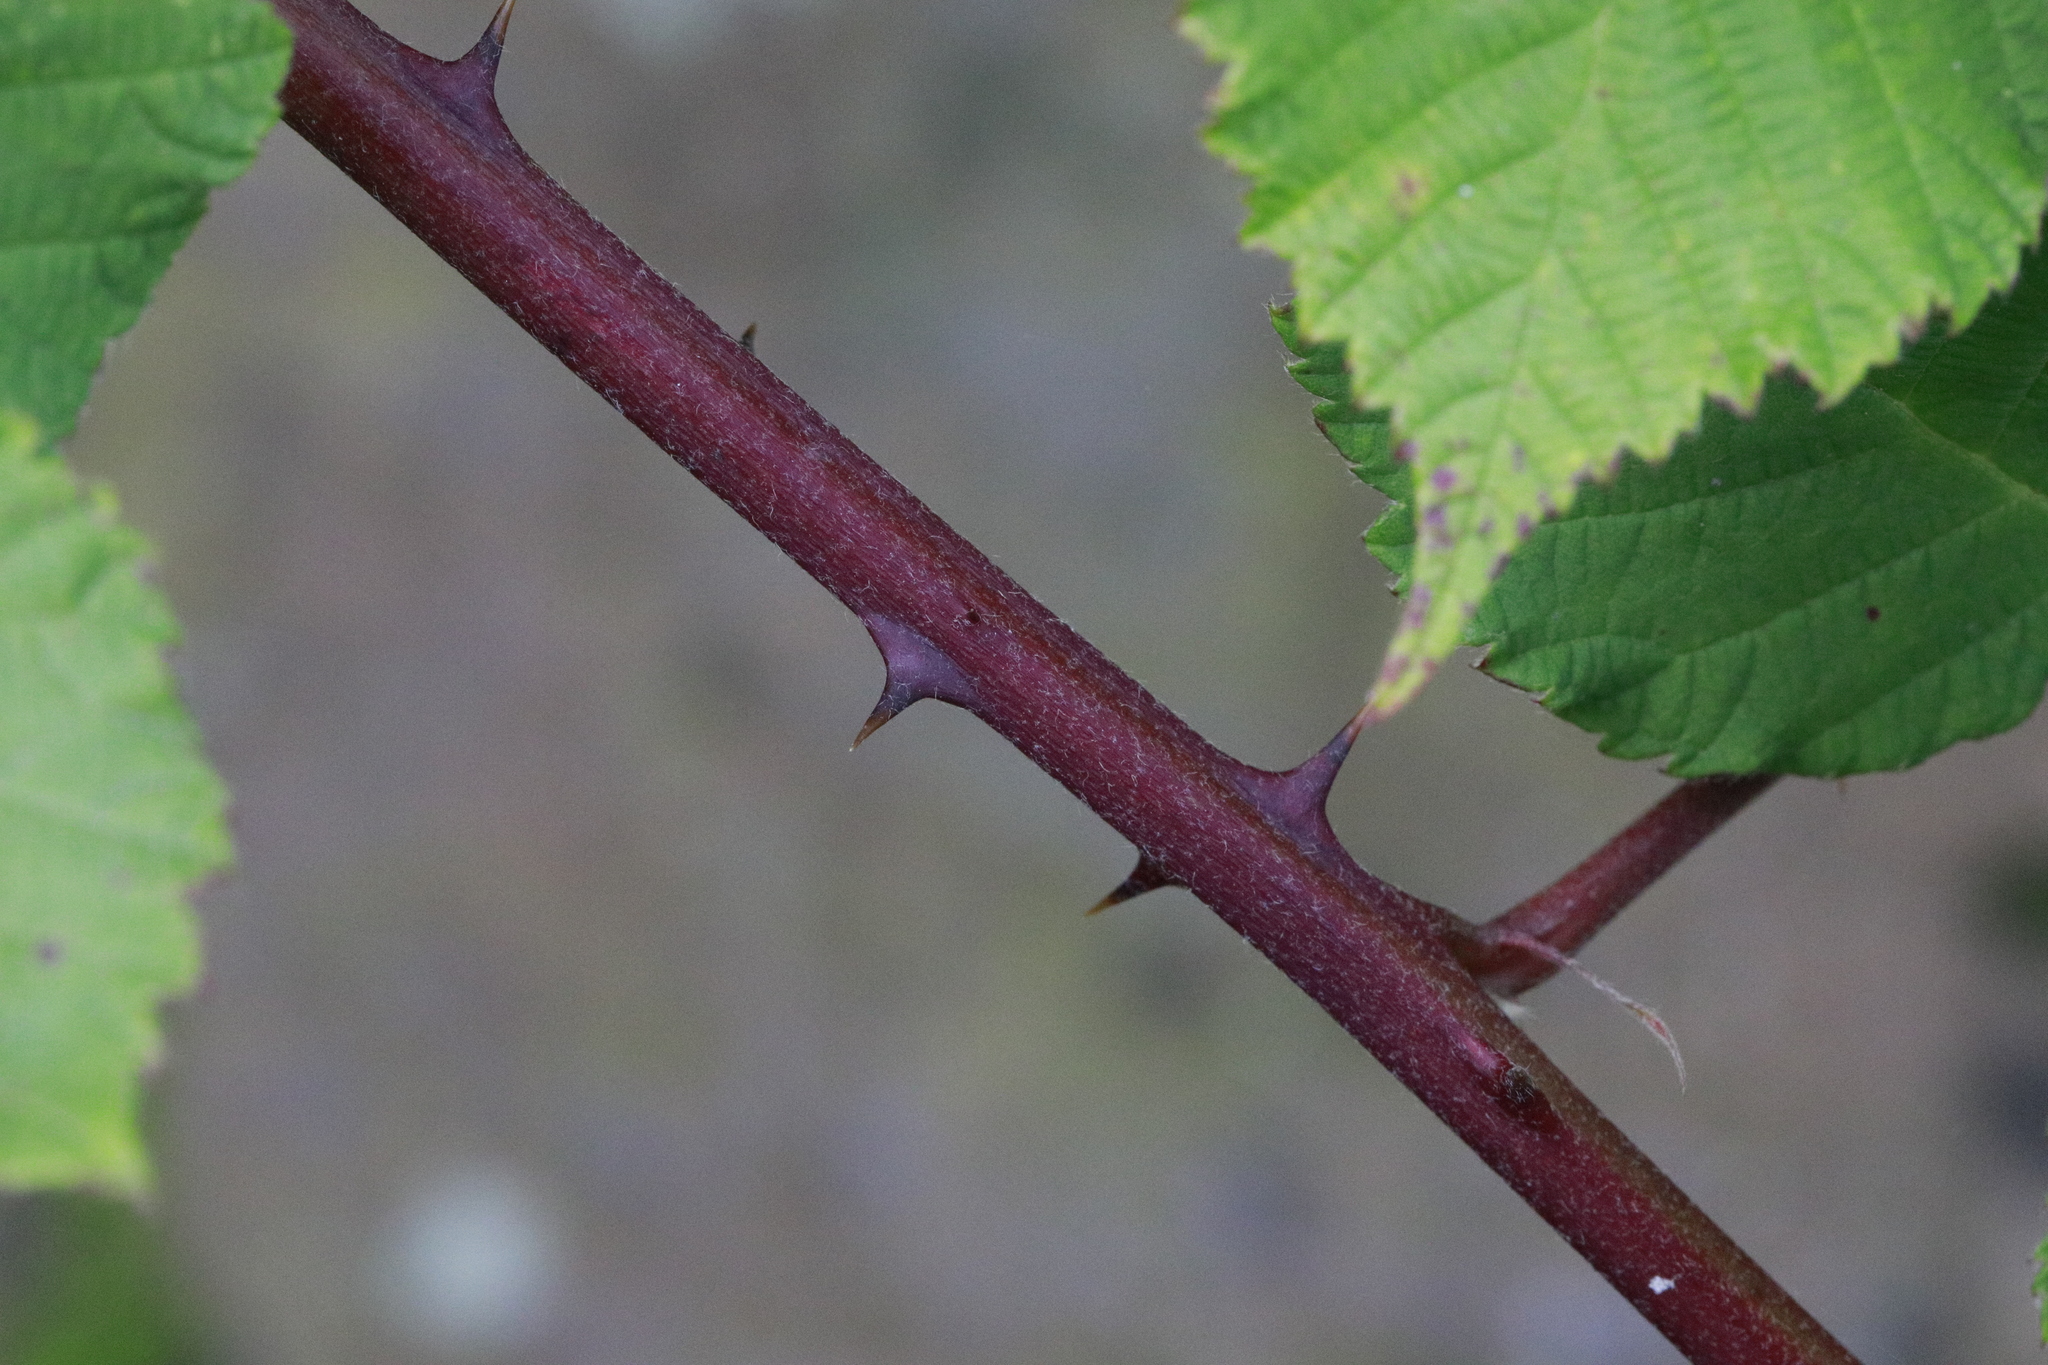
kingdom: Plantae
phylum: Tracheophyta
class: Magnoliopsida
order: Rosales
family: Rosaceae
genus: Rubus
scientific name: Rubus armeniacus
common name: Himalayan blackberry
